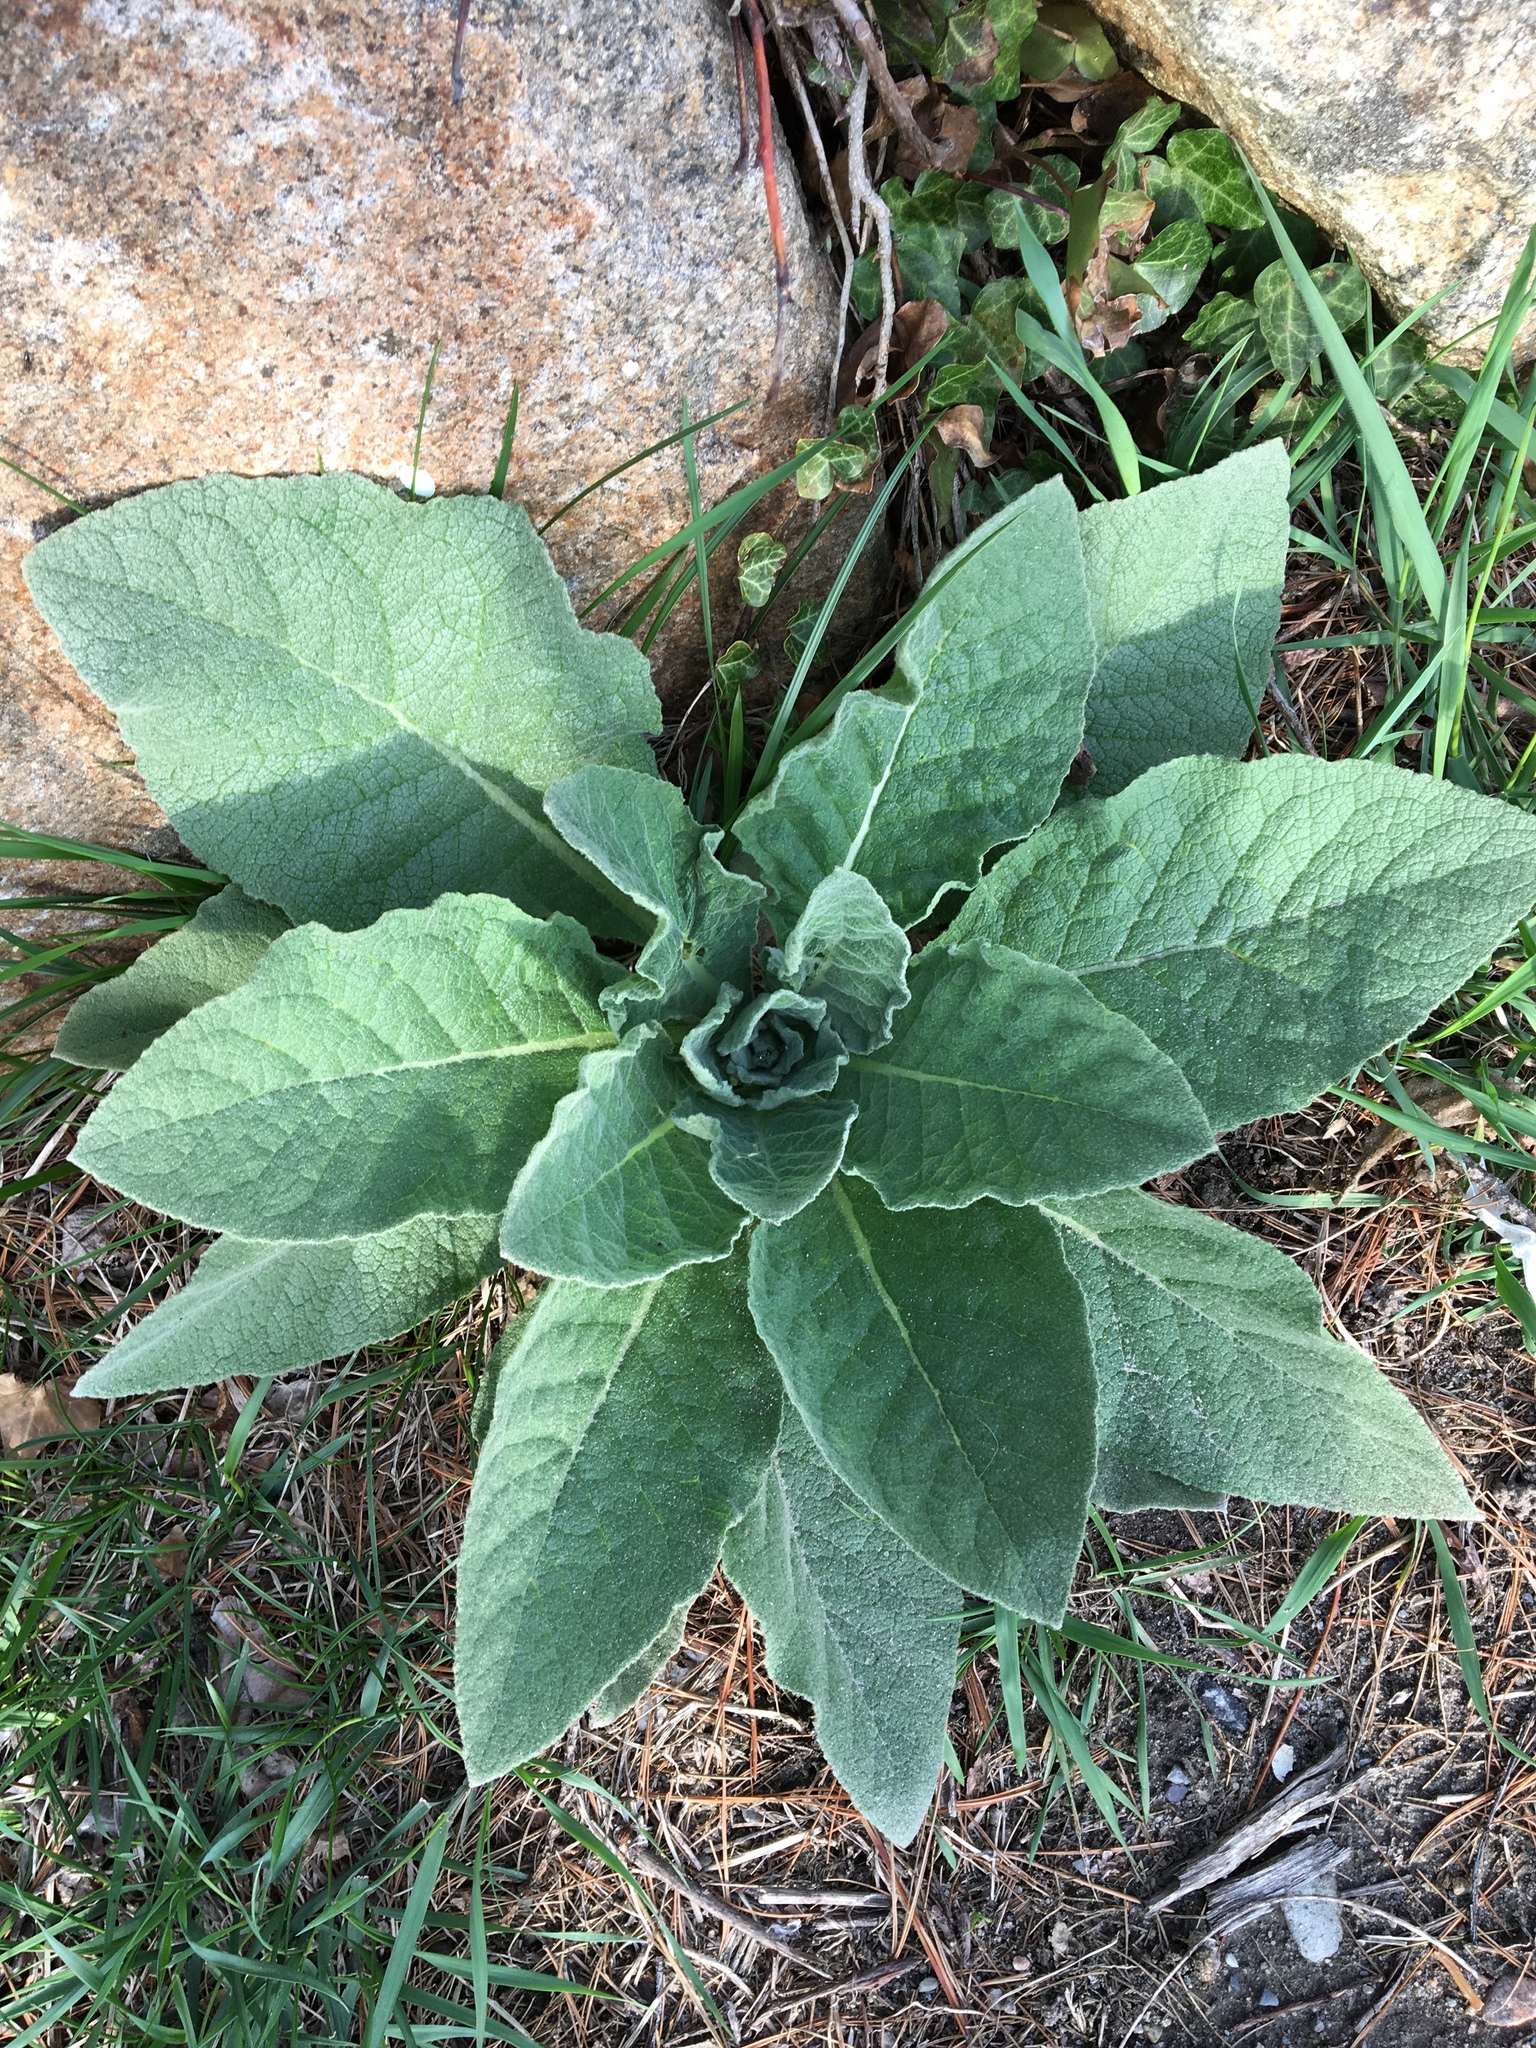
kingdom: Plantae
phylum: Tracheophyta
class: Magnoliopsida
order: Lamiales
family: Scrophulariaceae
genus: Verbascum
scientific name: Verbascum thapsus
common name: Common mullein
